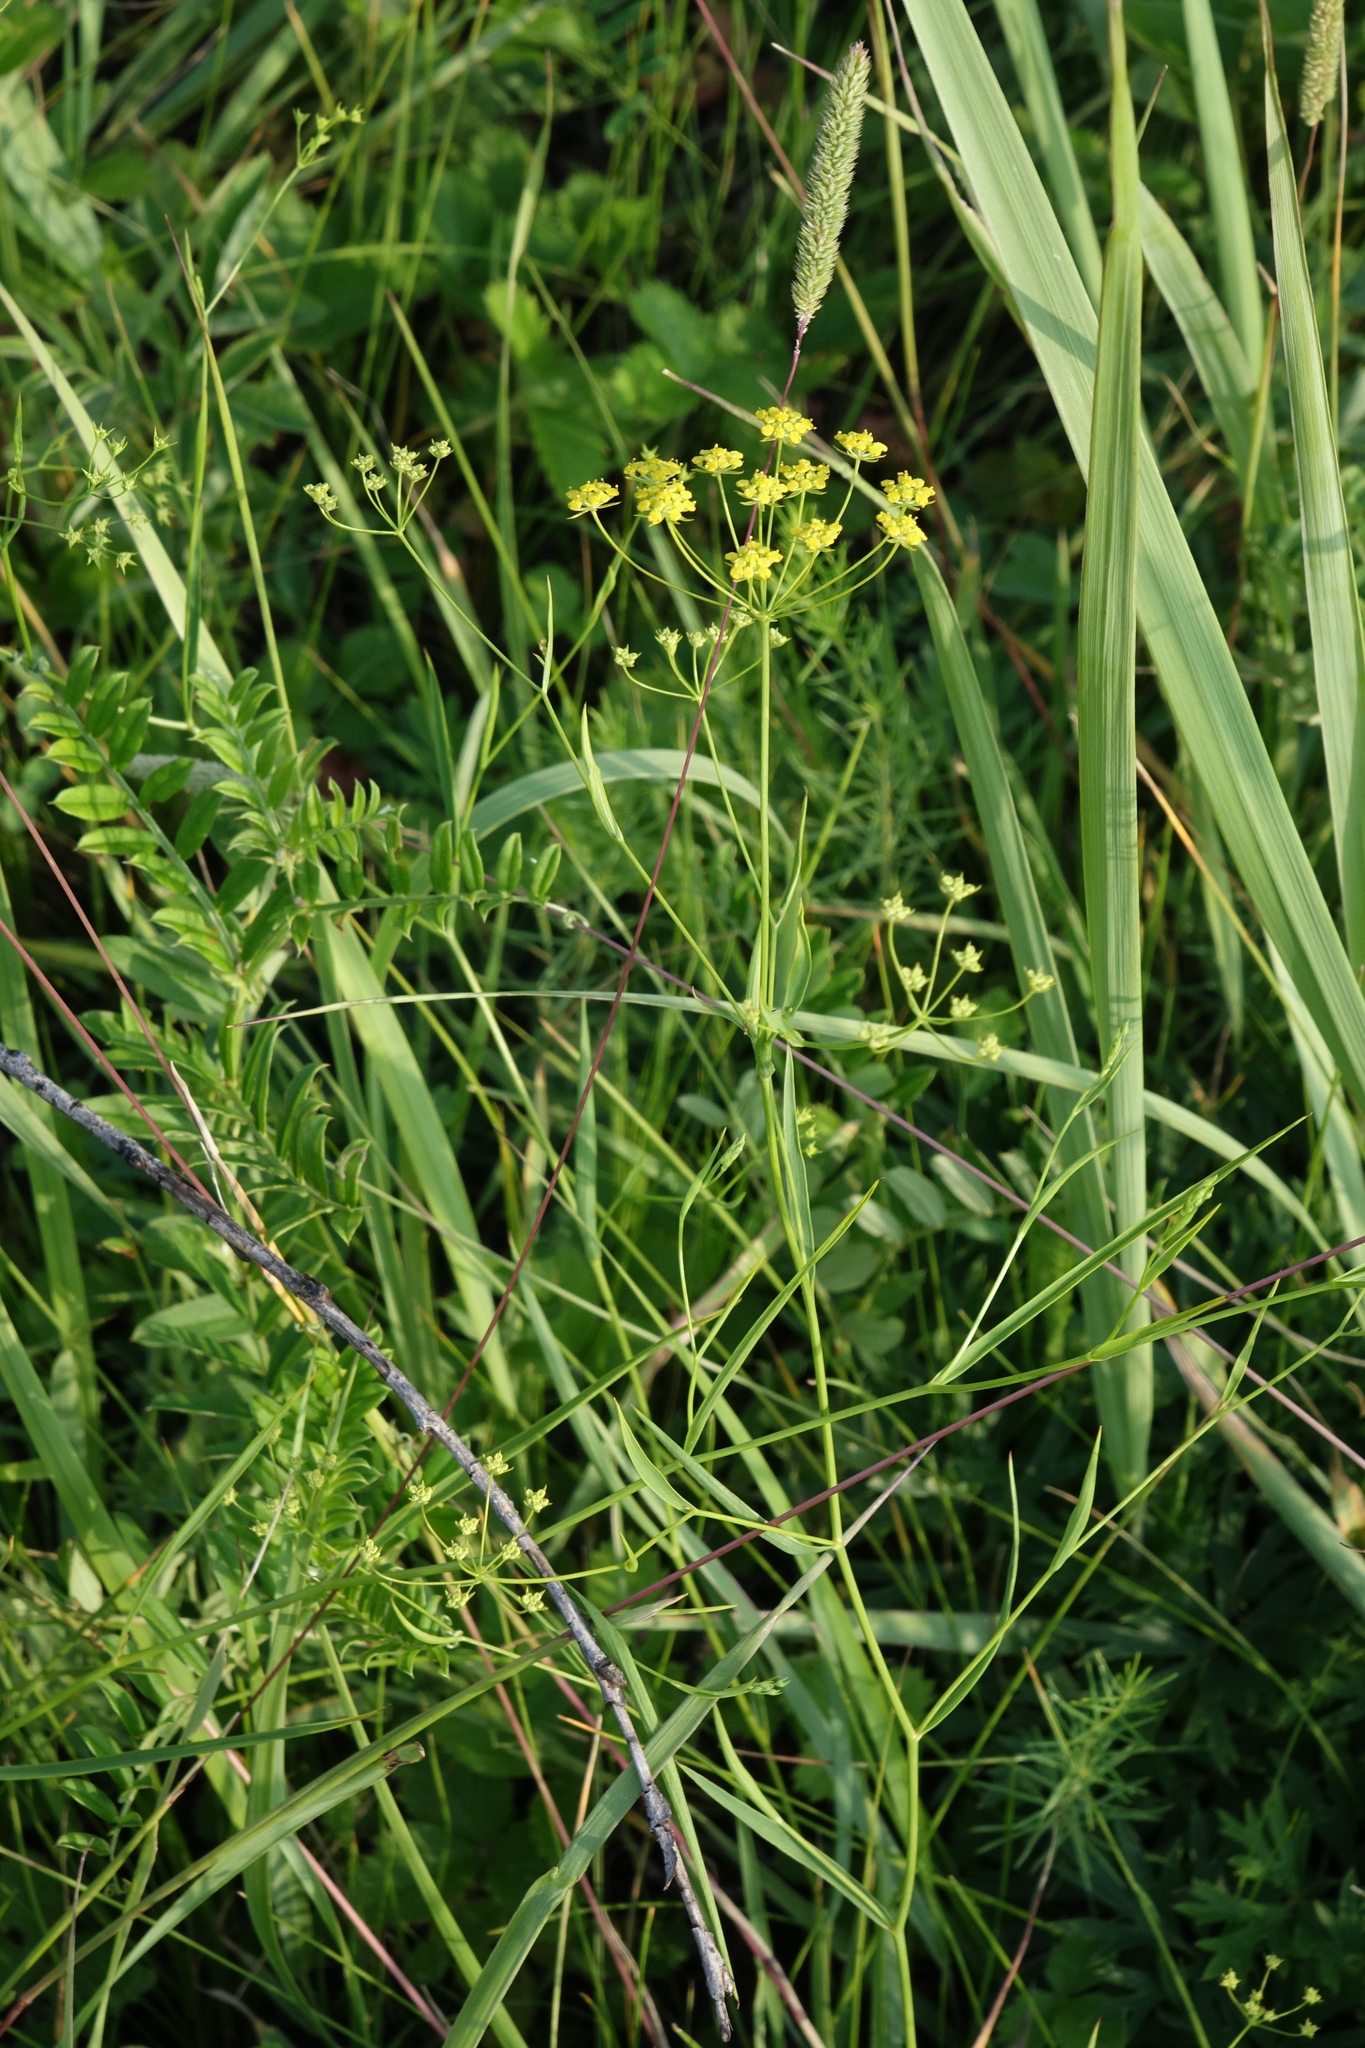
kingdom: Plantae
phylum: Tracheophyta
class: Magnoliopsida
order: Apiales
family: Apiaceae
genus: Bupleurum
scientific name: Bupleurum scorzonerifolium
